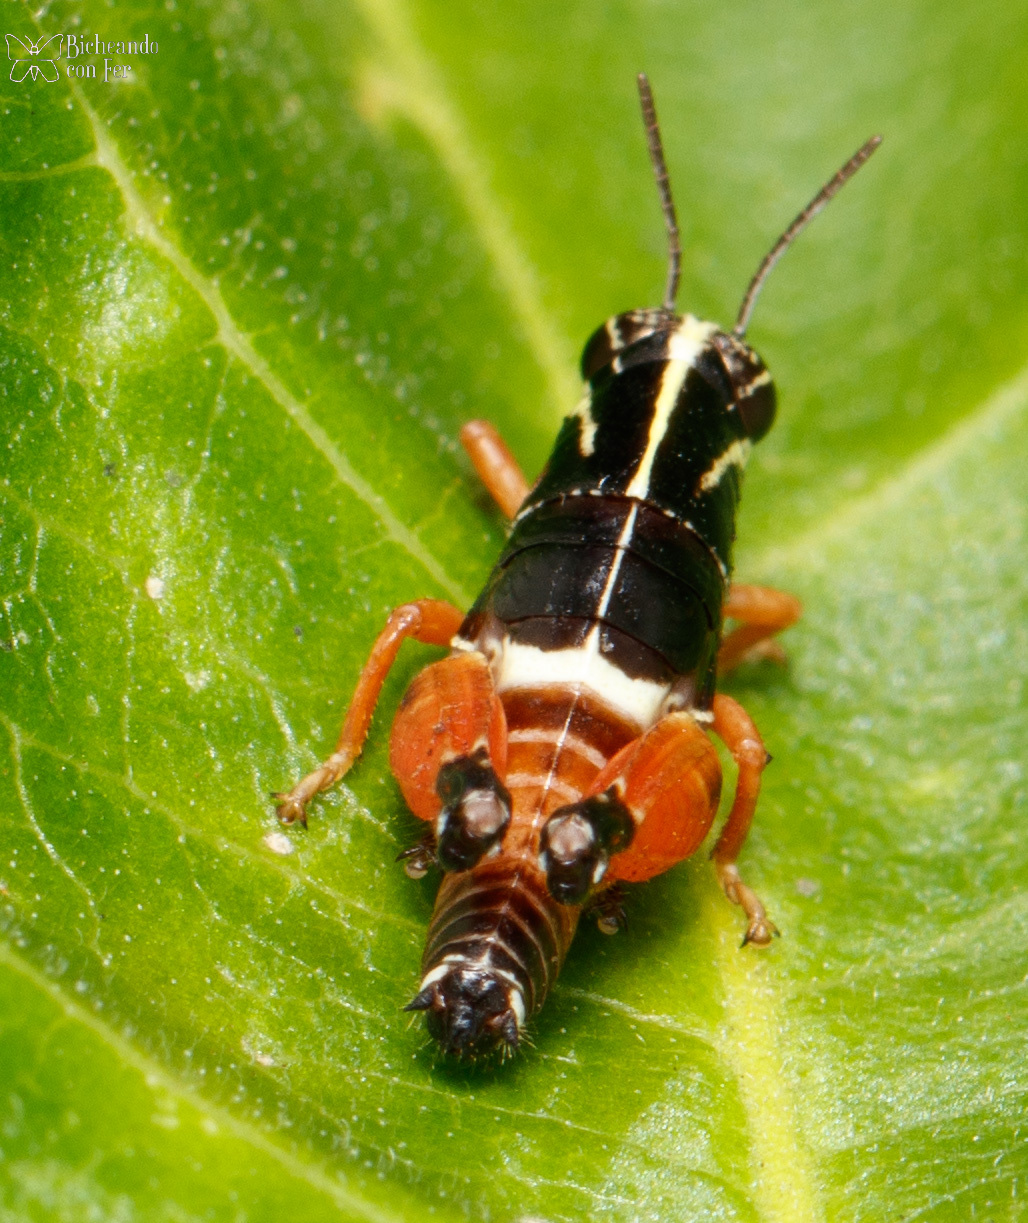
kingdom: Animalia
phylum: Arthropoda
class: Insecta
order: Orthoptera
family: Acrididae
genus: Aidemona
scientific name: Aidemona azteca
